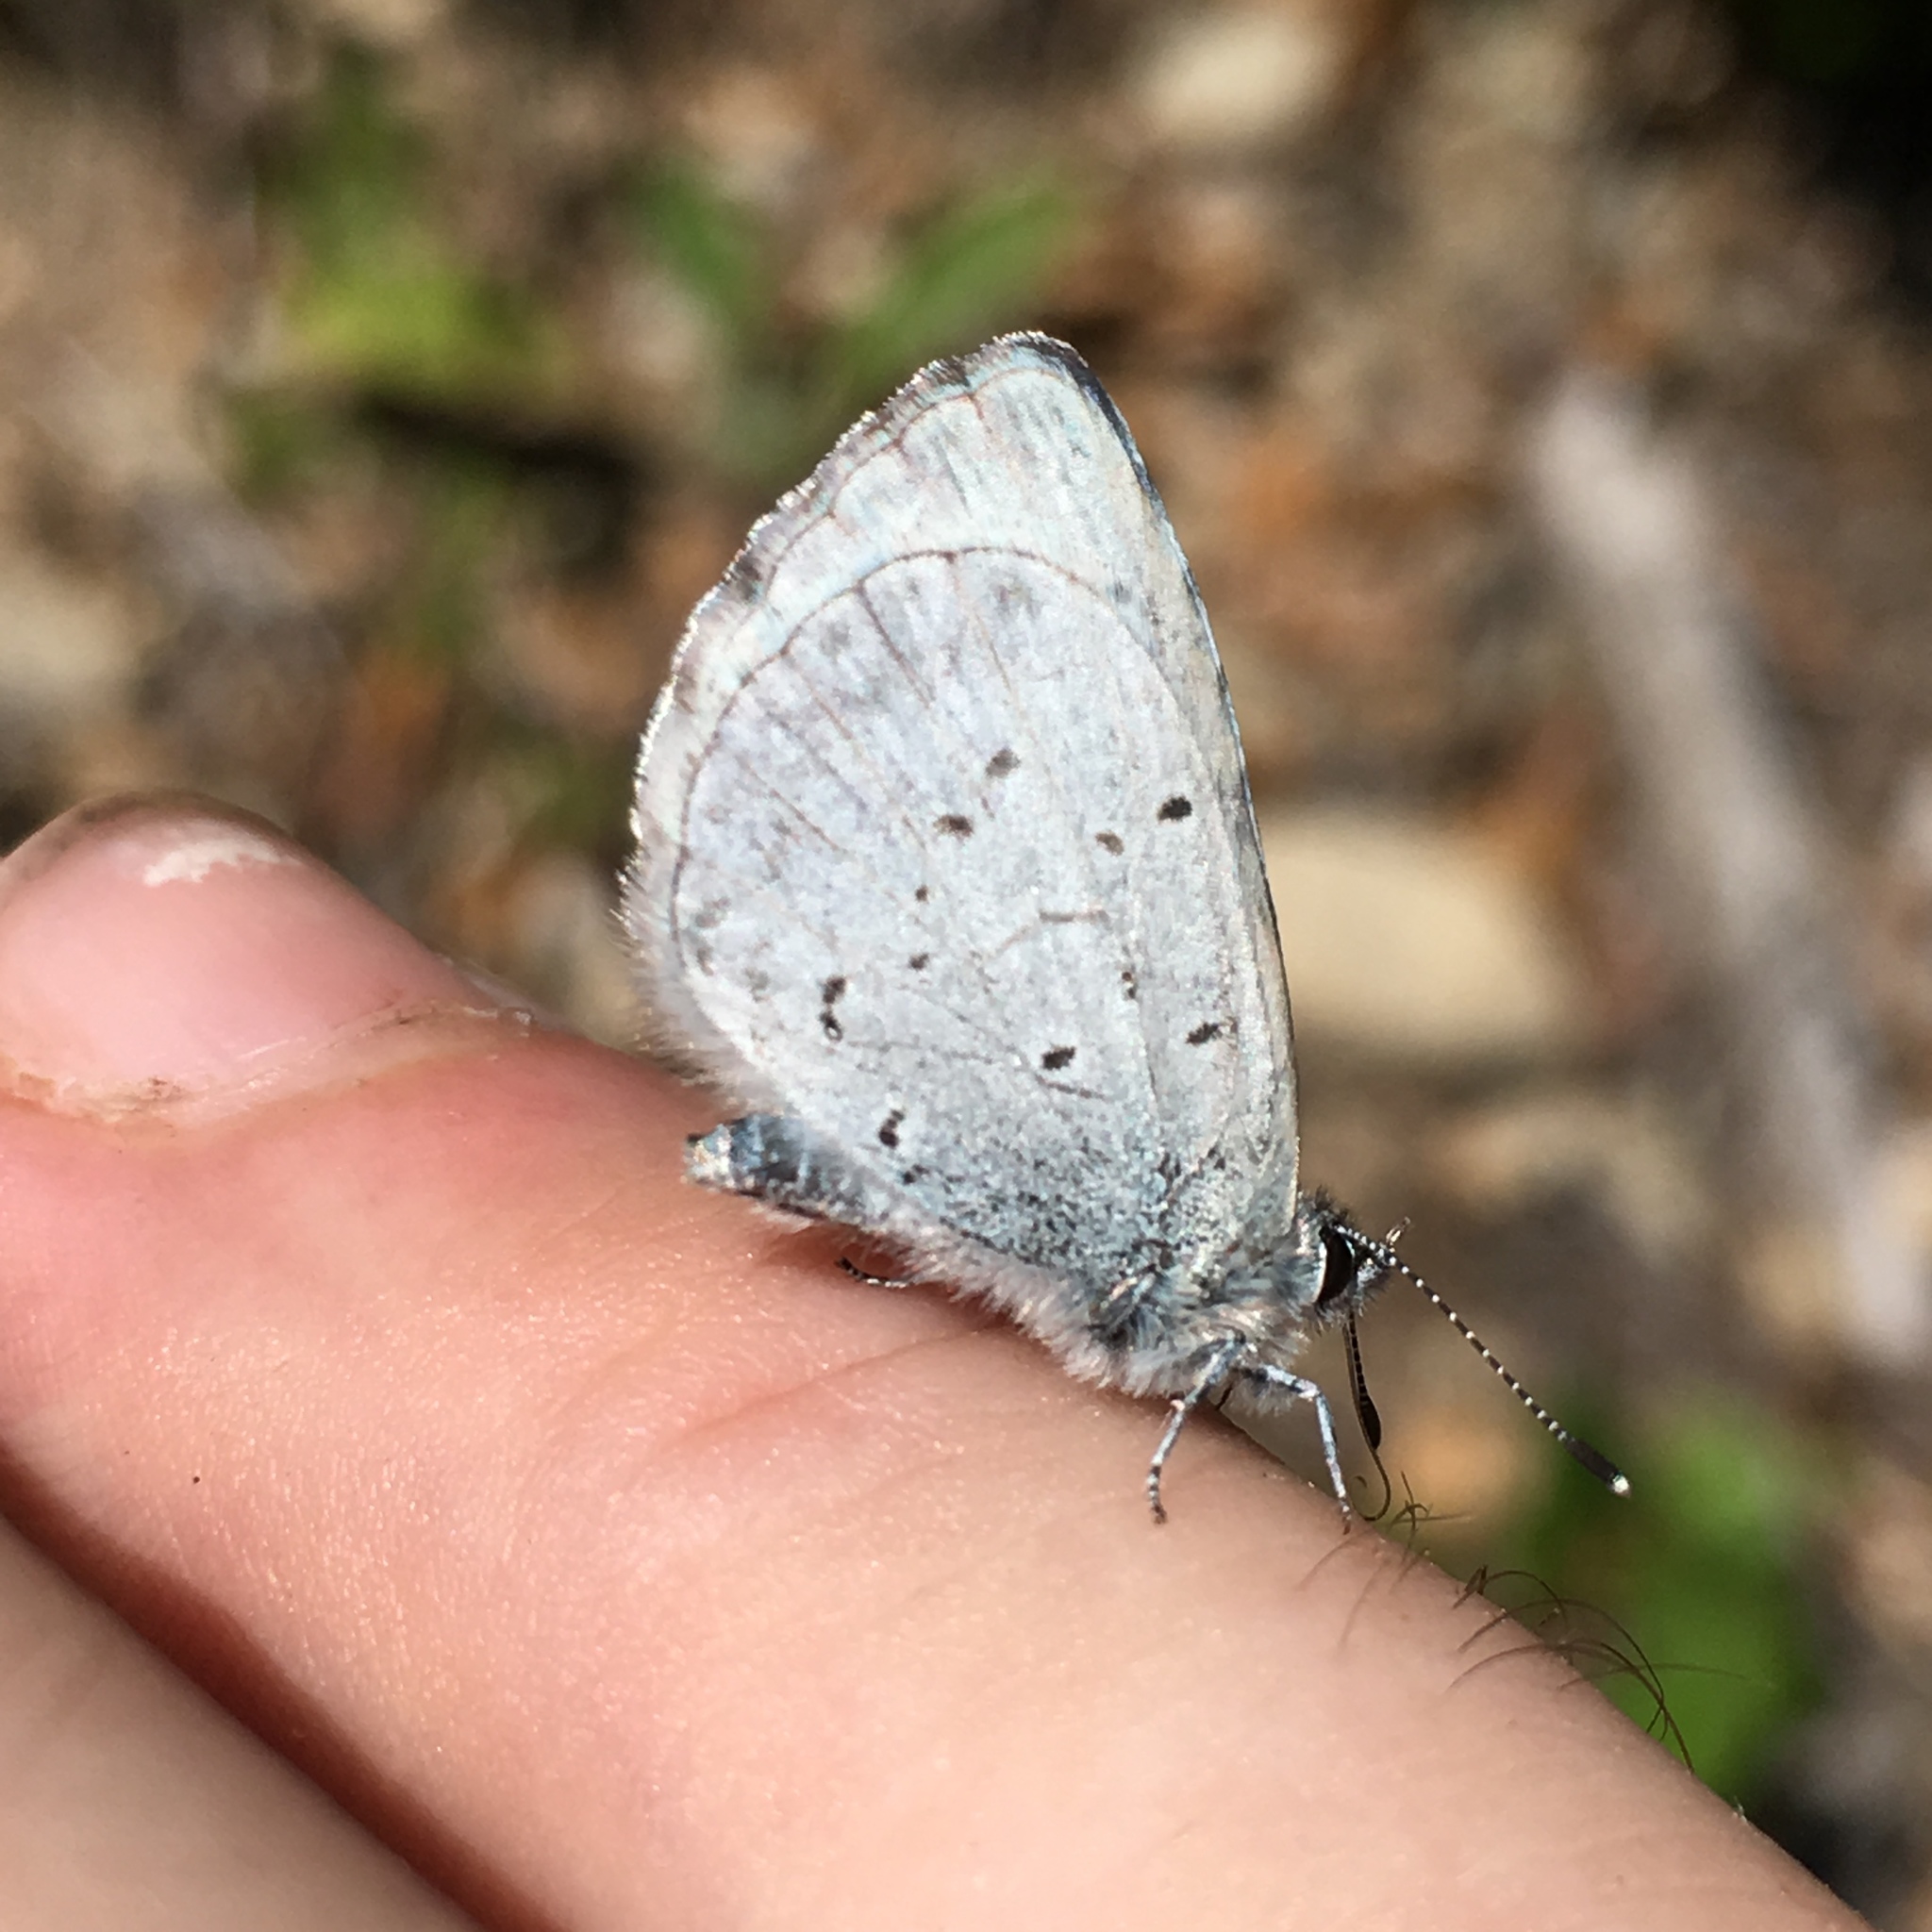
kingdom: Animalia
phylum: Arthropoda
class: Insecta
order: Lepidoptera
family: Lycaenidae
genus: Celastrina
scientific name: Celastrina ladon
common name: Spring azure
